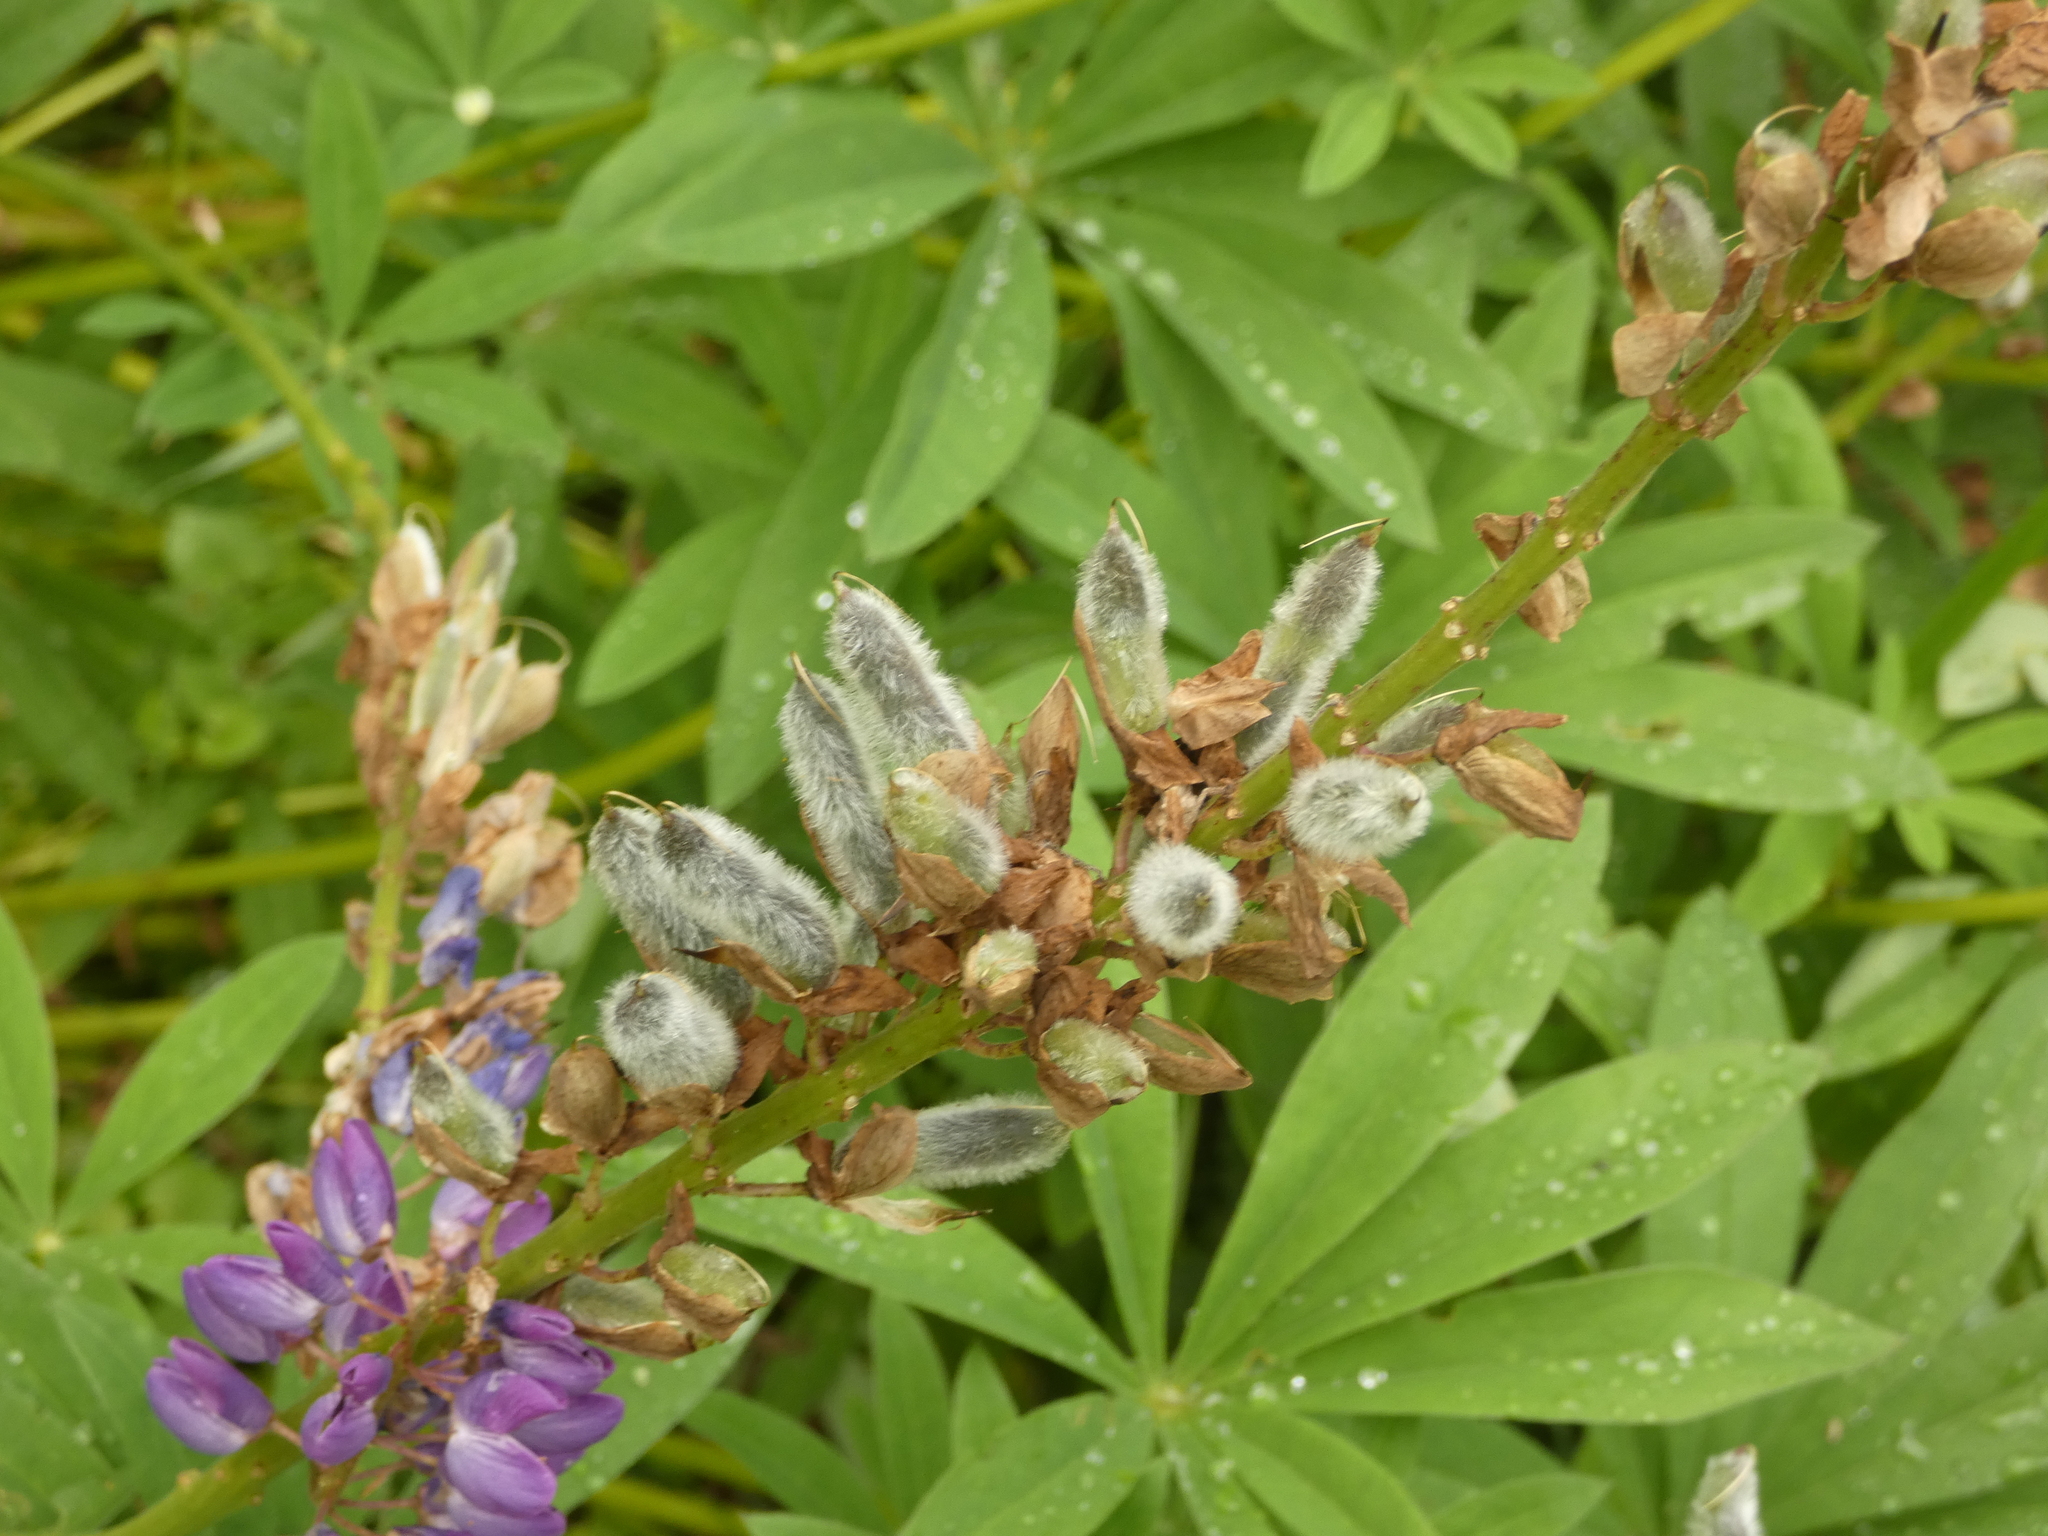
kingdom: Plantae
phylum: Tracheophyta
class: Magnoliopsida
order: Fabales
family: Fabaceae
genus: Lupinus
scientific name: Lupinus polyphyllus
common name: Garden lupin
